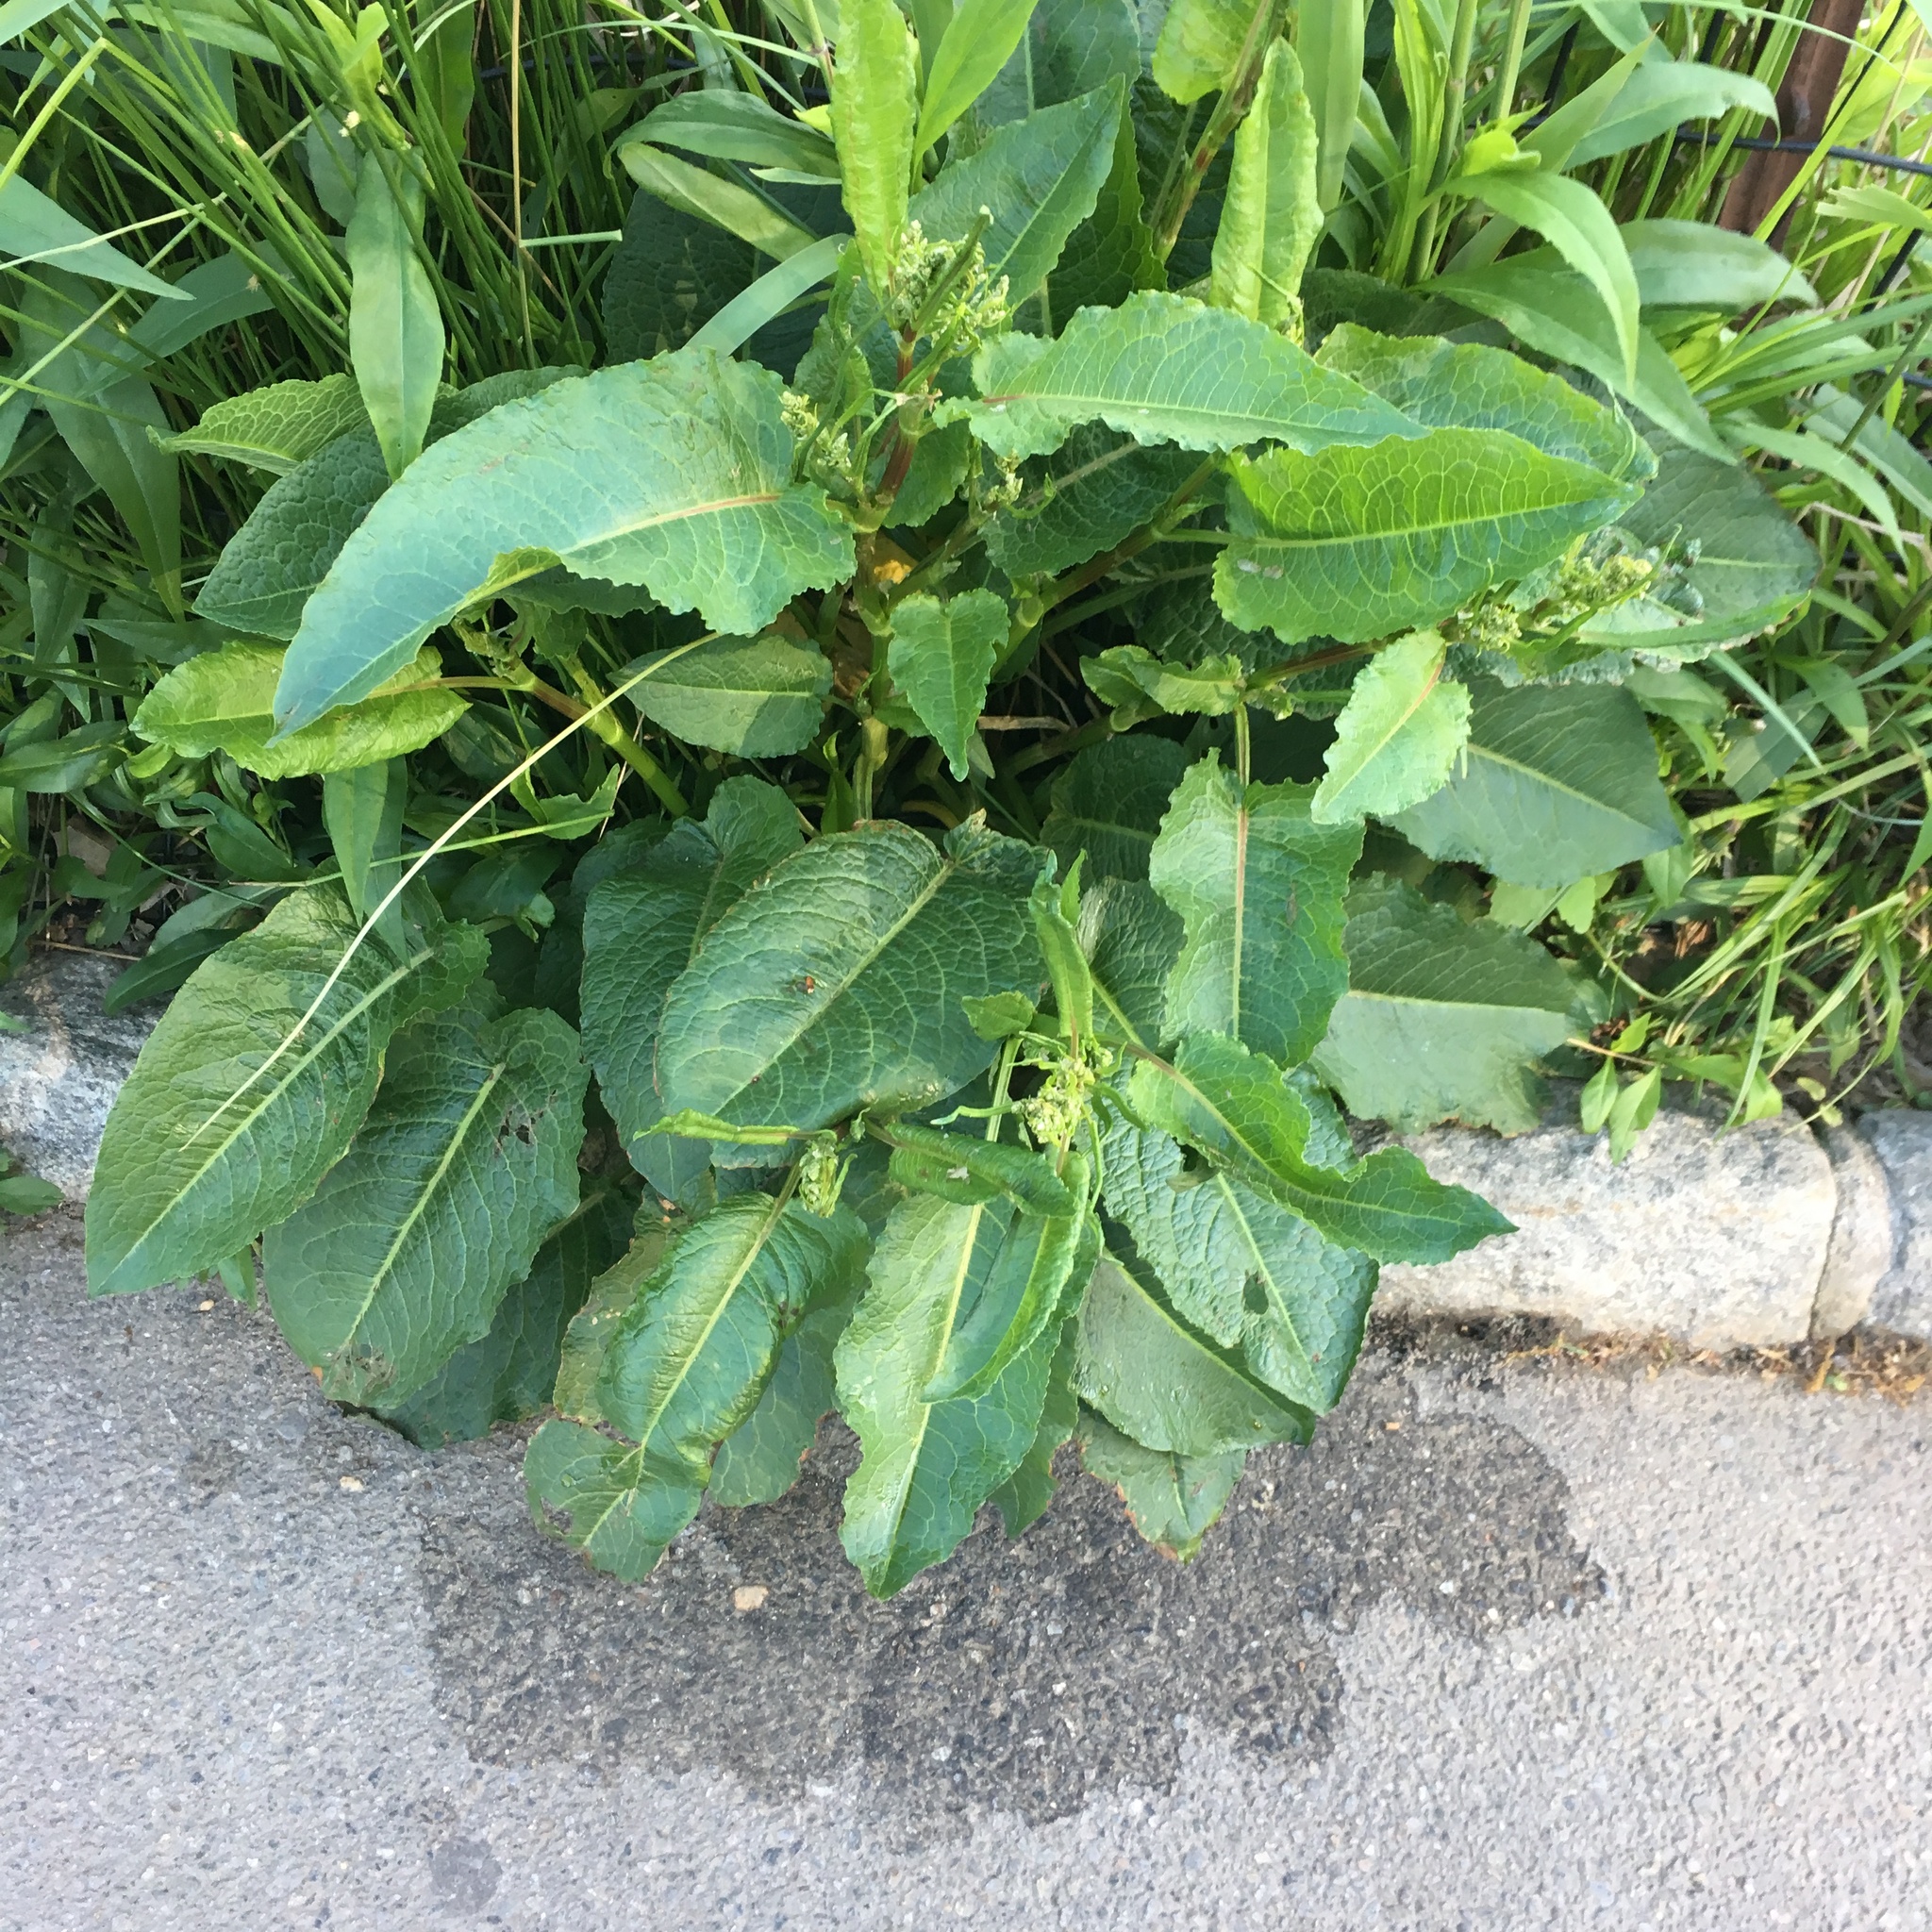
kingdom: Plantae
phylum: Tracheophyta
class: Magnoliopsida
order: Caryophyllales
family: Polygonaceae
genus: Rumex
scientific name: Rumex obtusifolius
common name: Bitter dock
